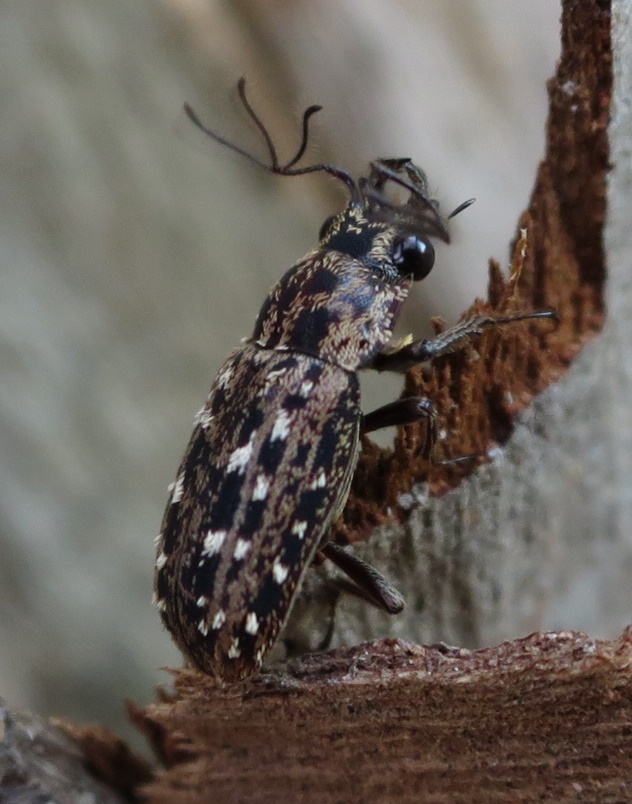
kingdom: Animalia
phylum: Arthropoda
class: Insecta
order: Coleoptera
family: Lucanidae
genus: Mitophyllus
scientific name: Mitophyllus arcuatus
